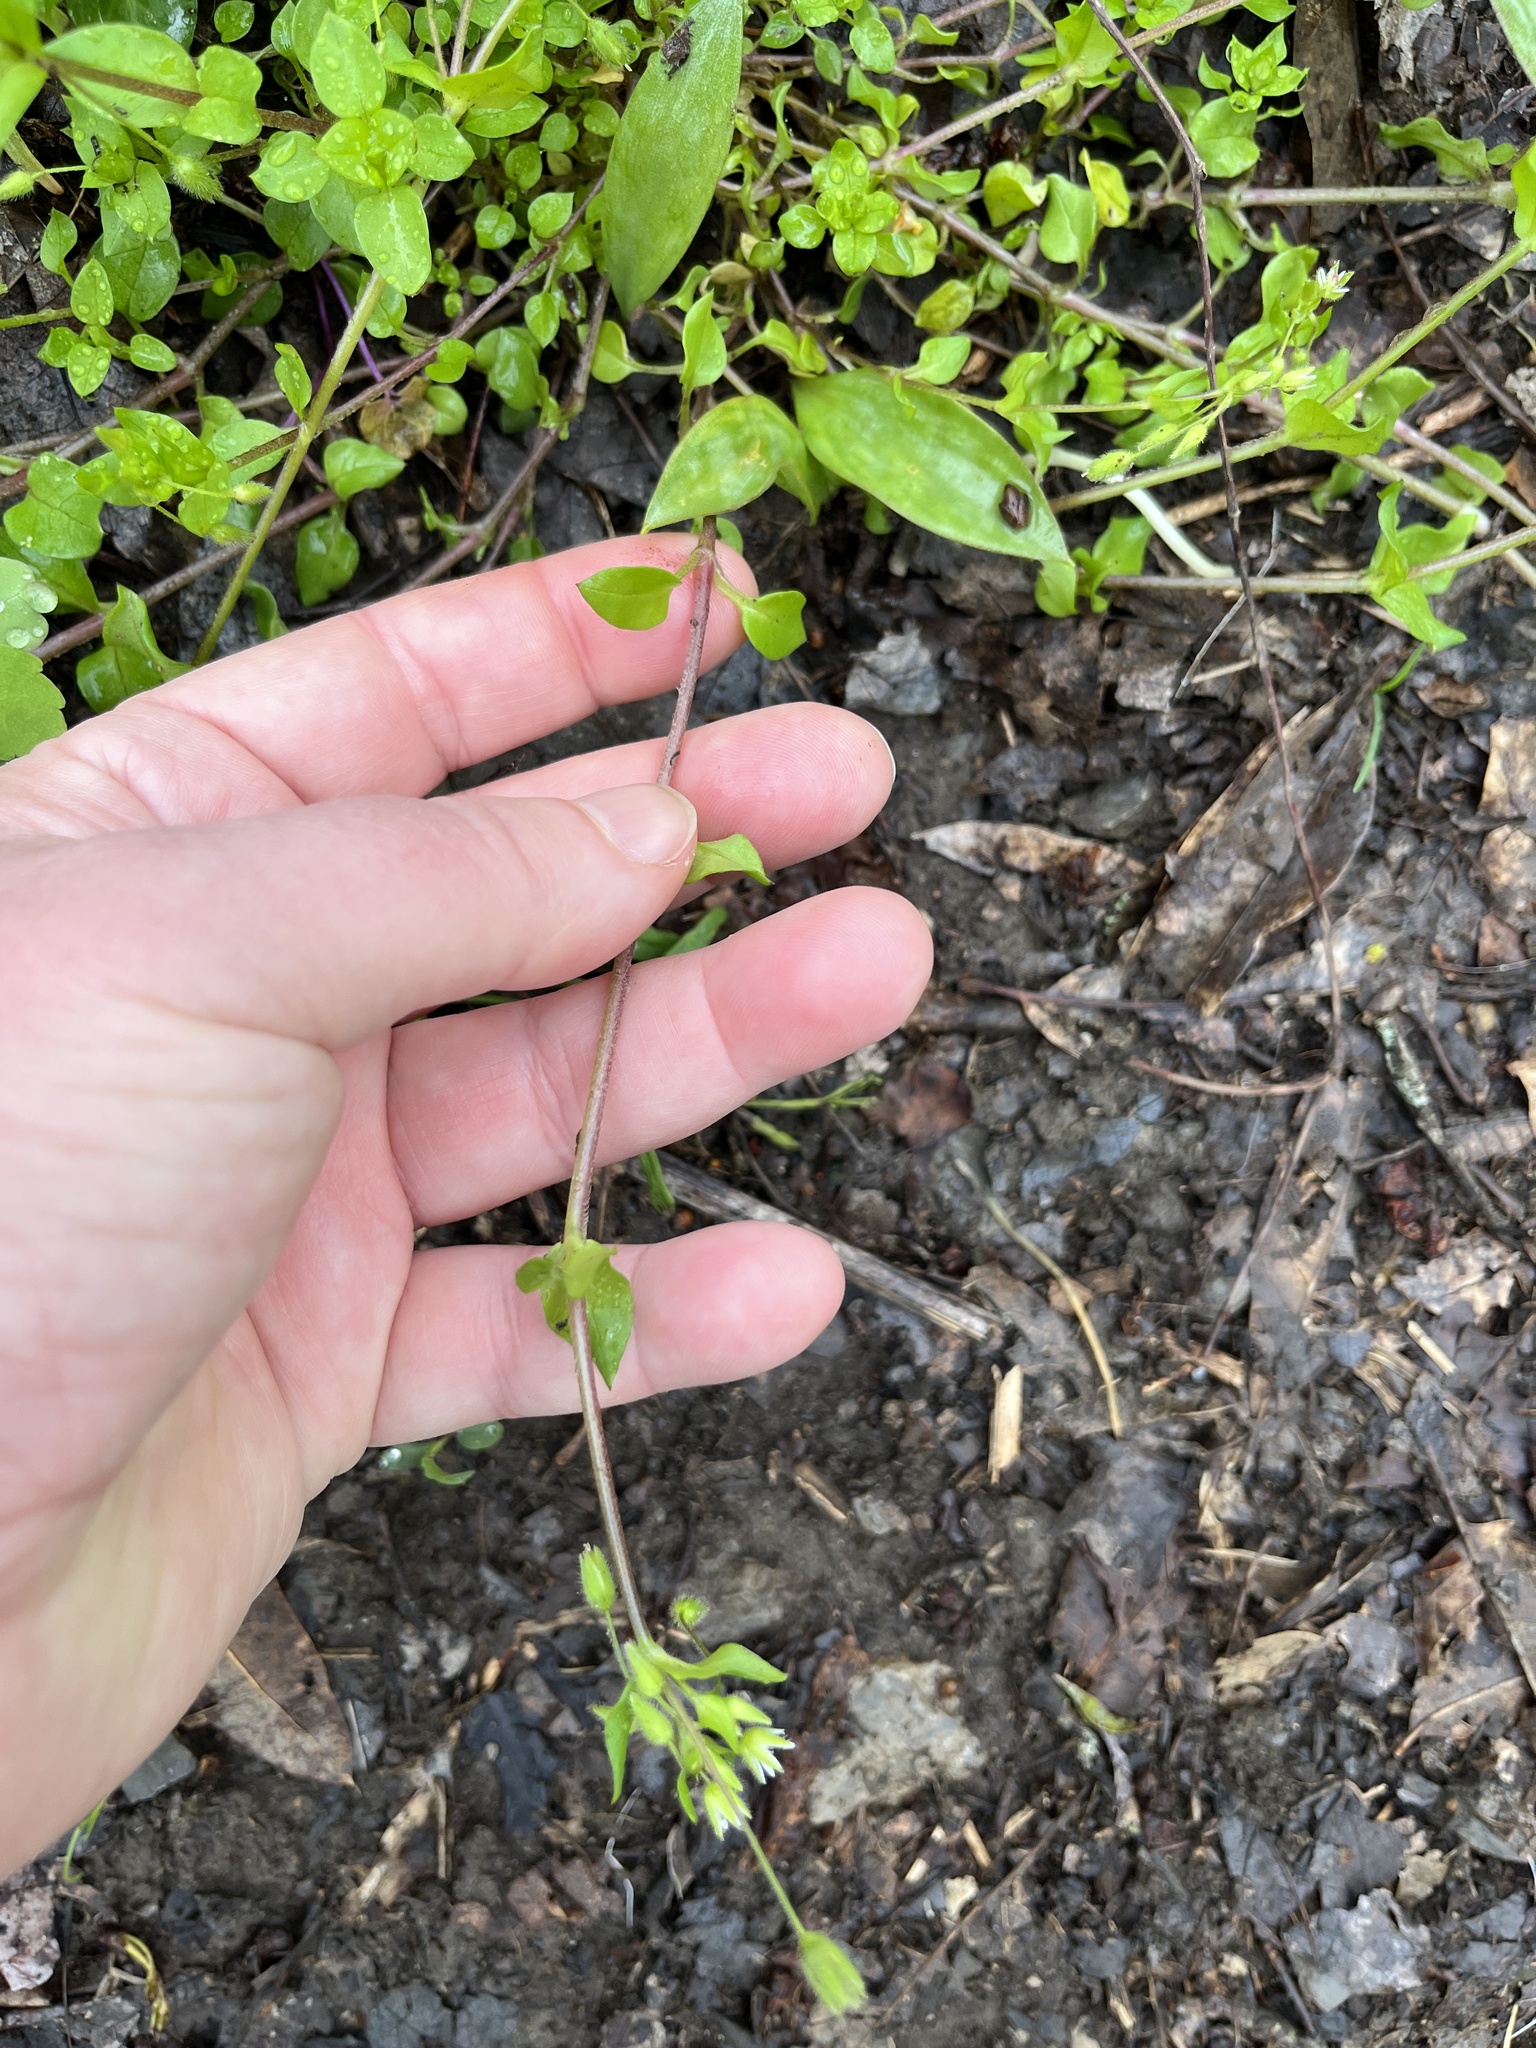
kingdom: Plantae
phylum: Tracheophyta
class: Magnoliopsida
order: Caryophyllales
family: Caryophyllaceae
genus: Stellaria
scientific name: Stellaria media
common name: Common chickweed
